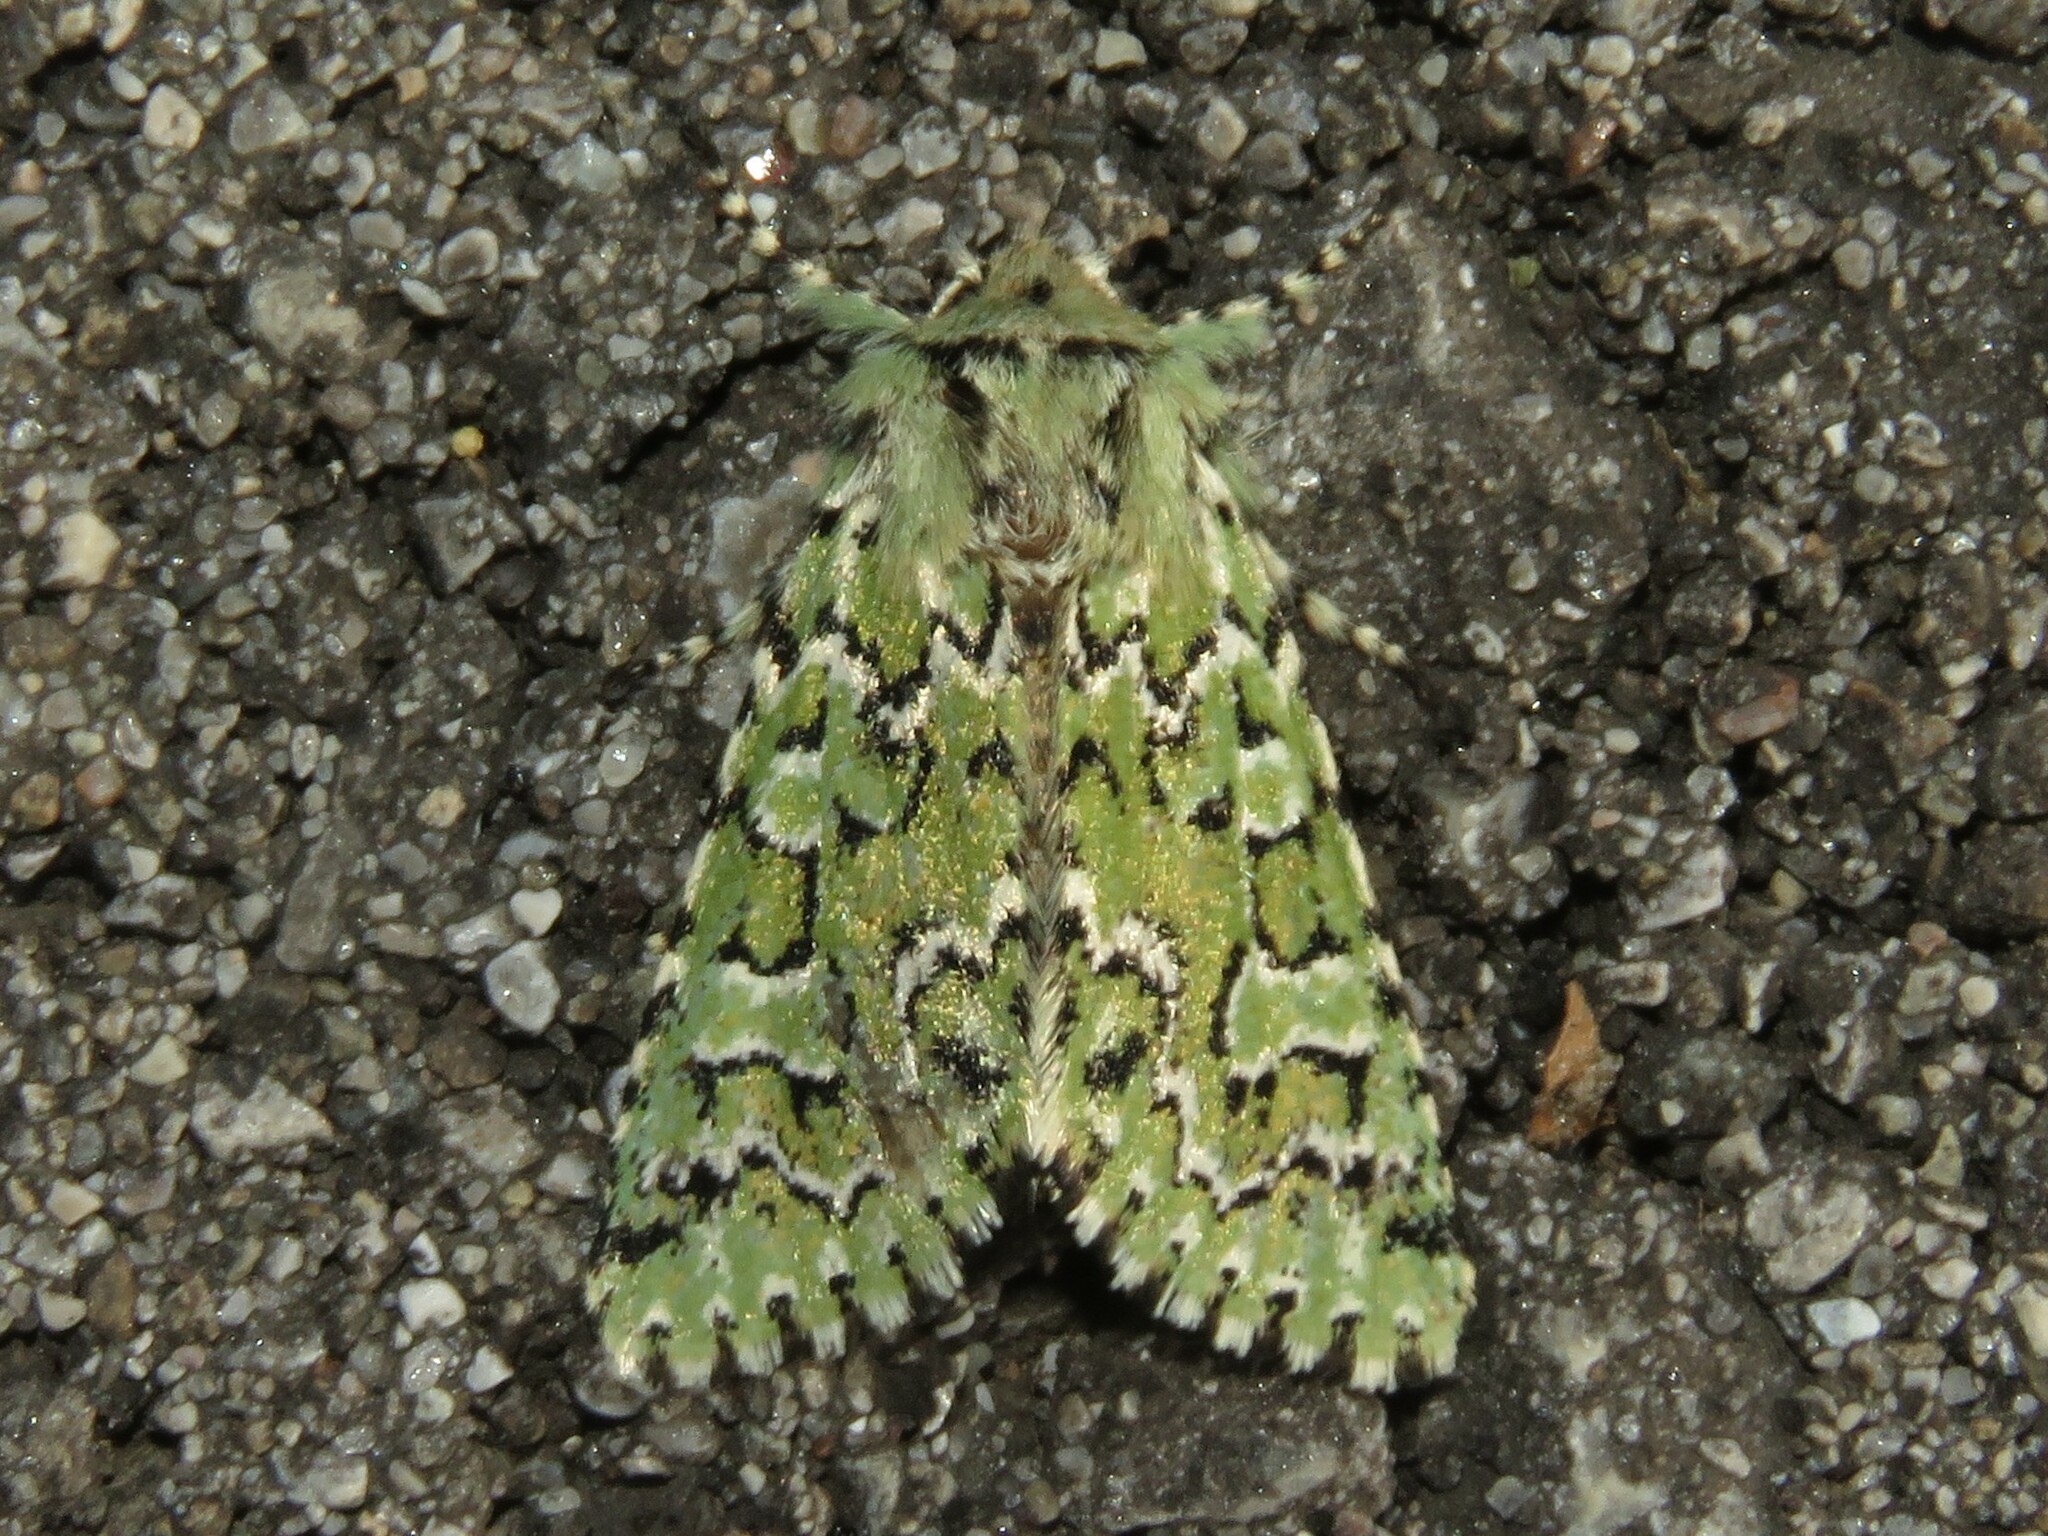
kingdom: Animalia
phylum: Arthropoda
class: Insecta
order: Lepidoptera
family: Noctuidae
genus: Feralia
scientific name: Feralia jocosa
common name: Joker
